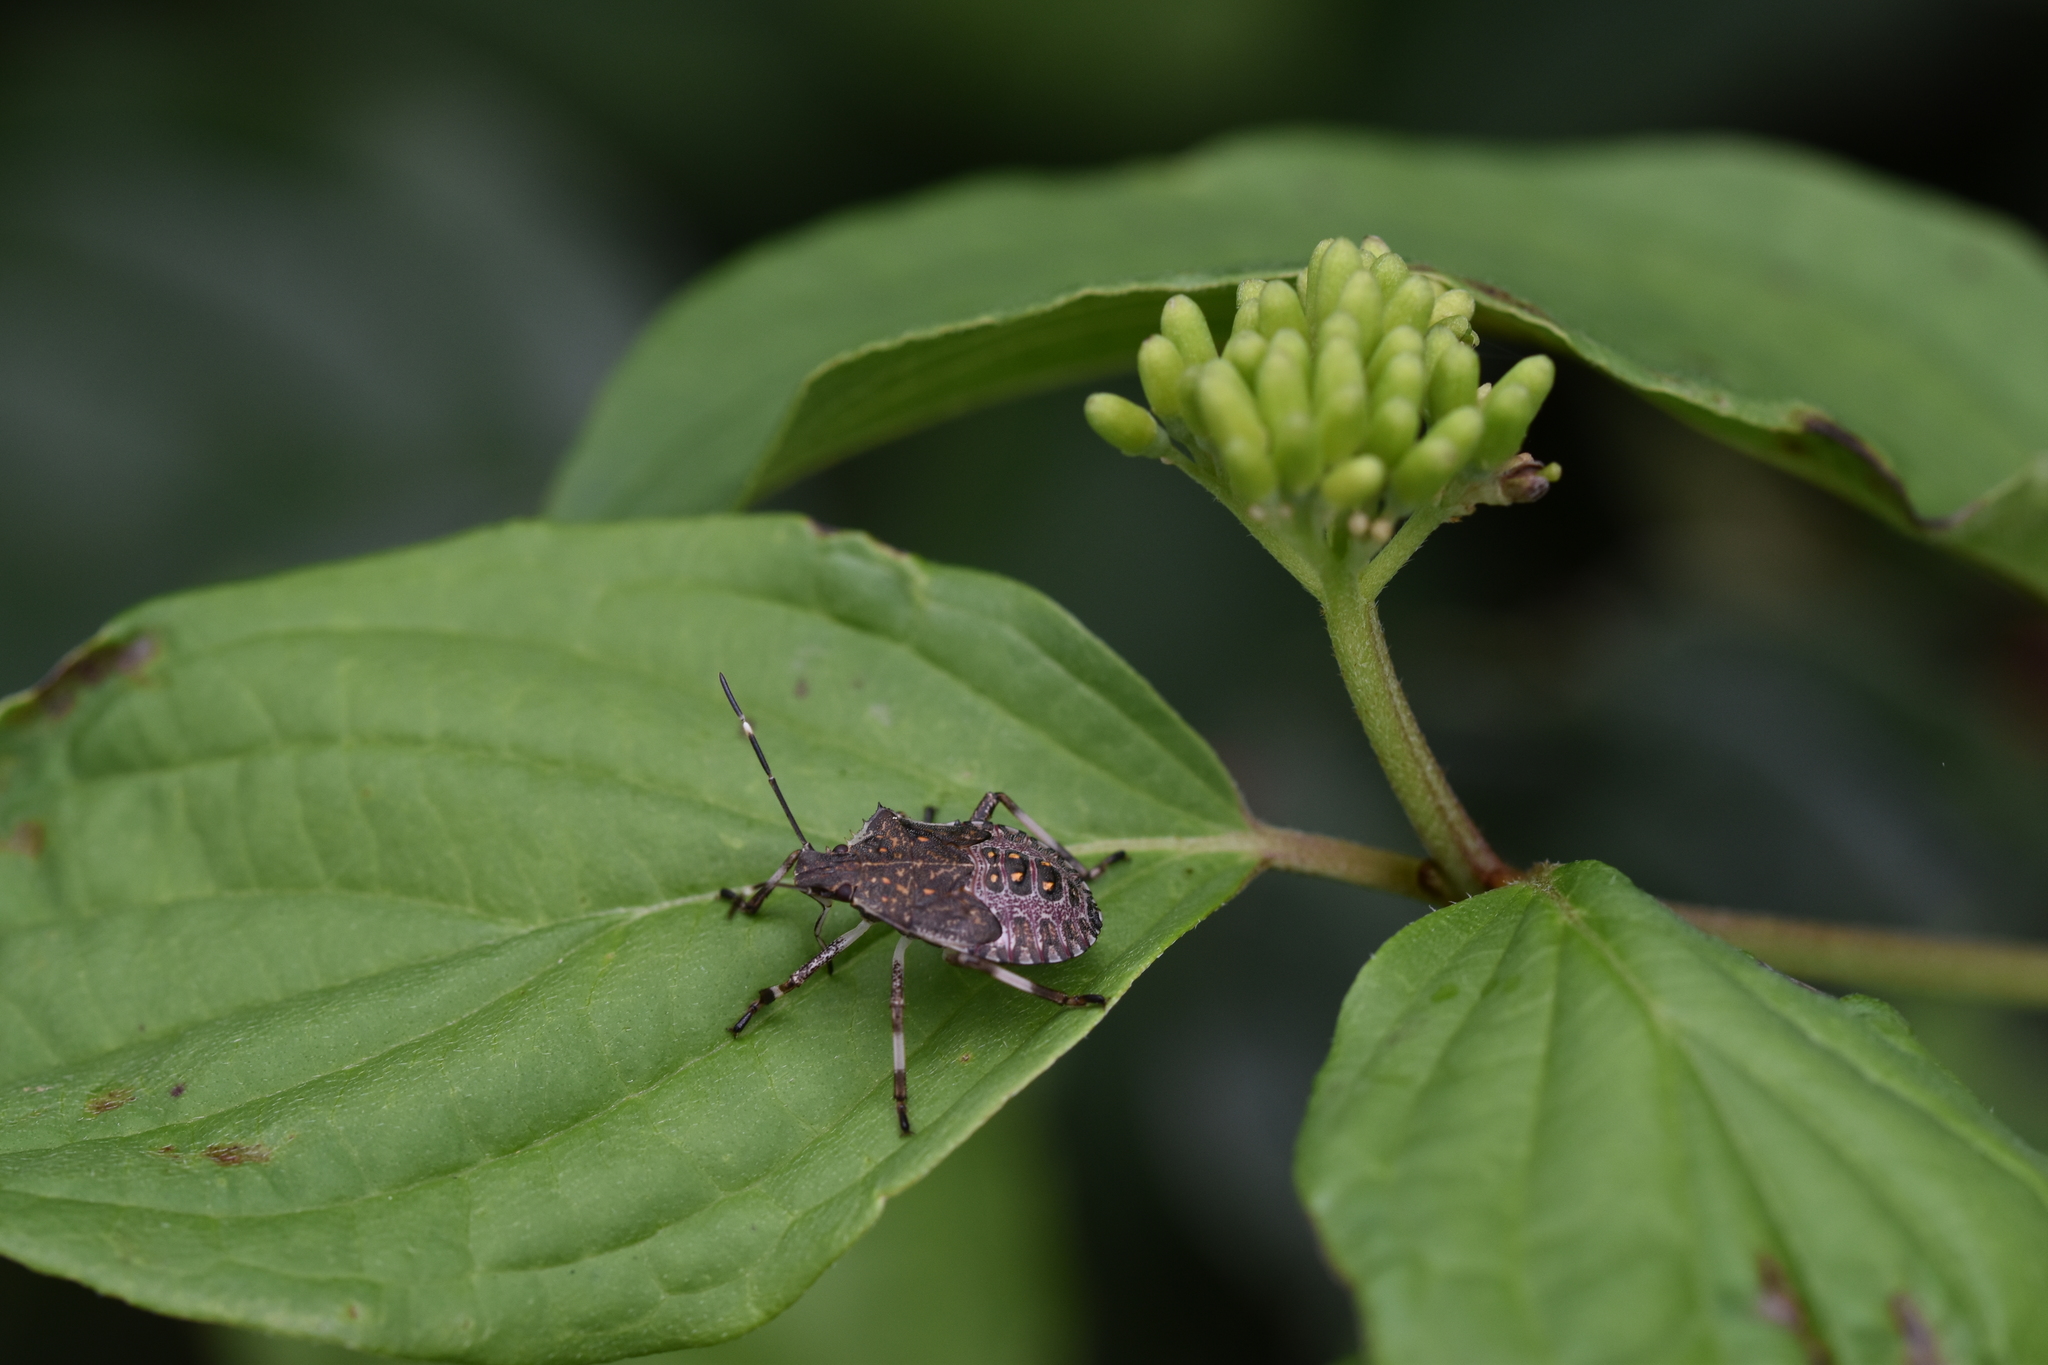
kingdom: Animalia
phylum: Arthropoda
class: Insecta
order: Hemiptera
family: Pentatomidae
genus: Halyomorpha
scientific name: Halyomorpha halys
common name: Brown marmorated stink bug
